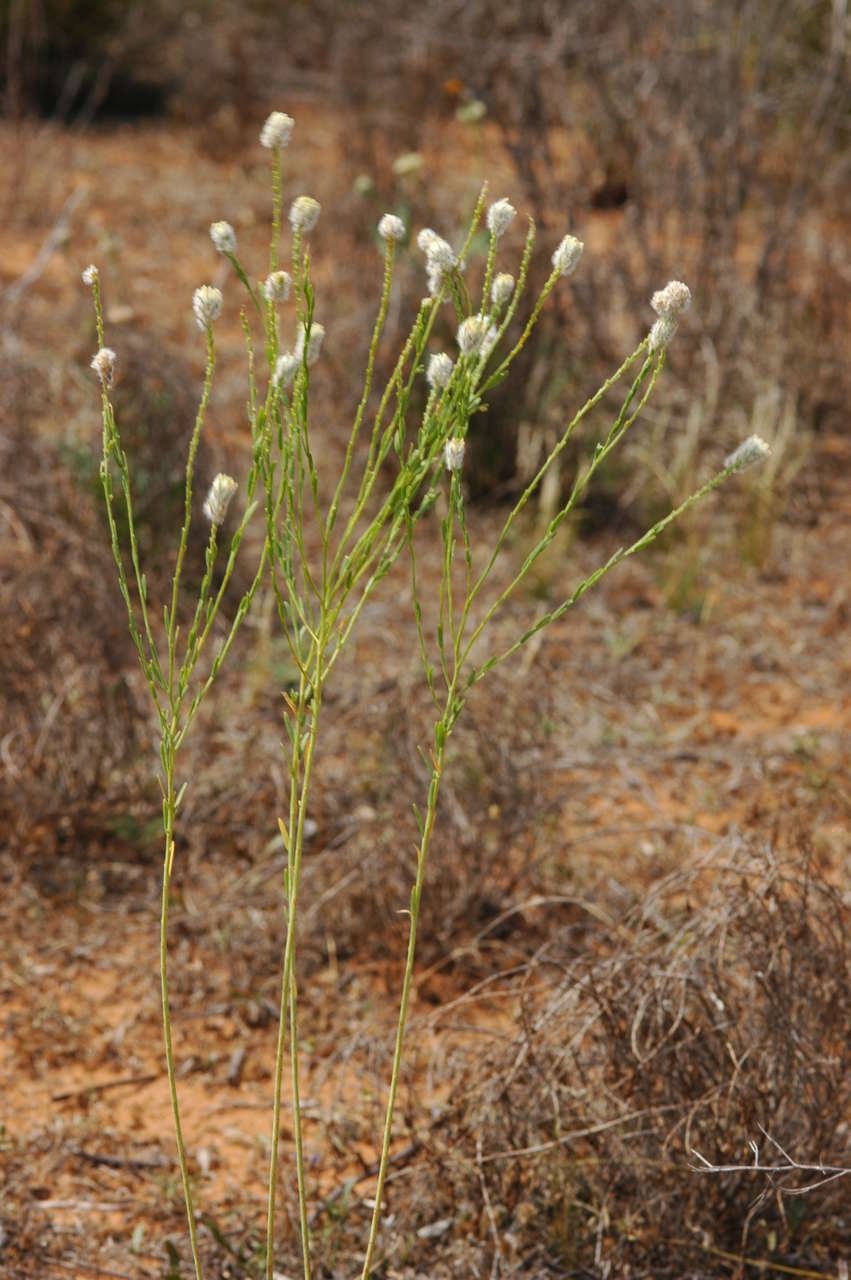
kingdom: Plantae
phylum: Tracheophyta
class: Magnoliopsida
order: Malvales
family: Thymelaeaceae
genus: Pimelea
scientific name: Pimelea trichostachya
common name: Poverty-bush
